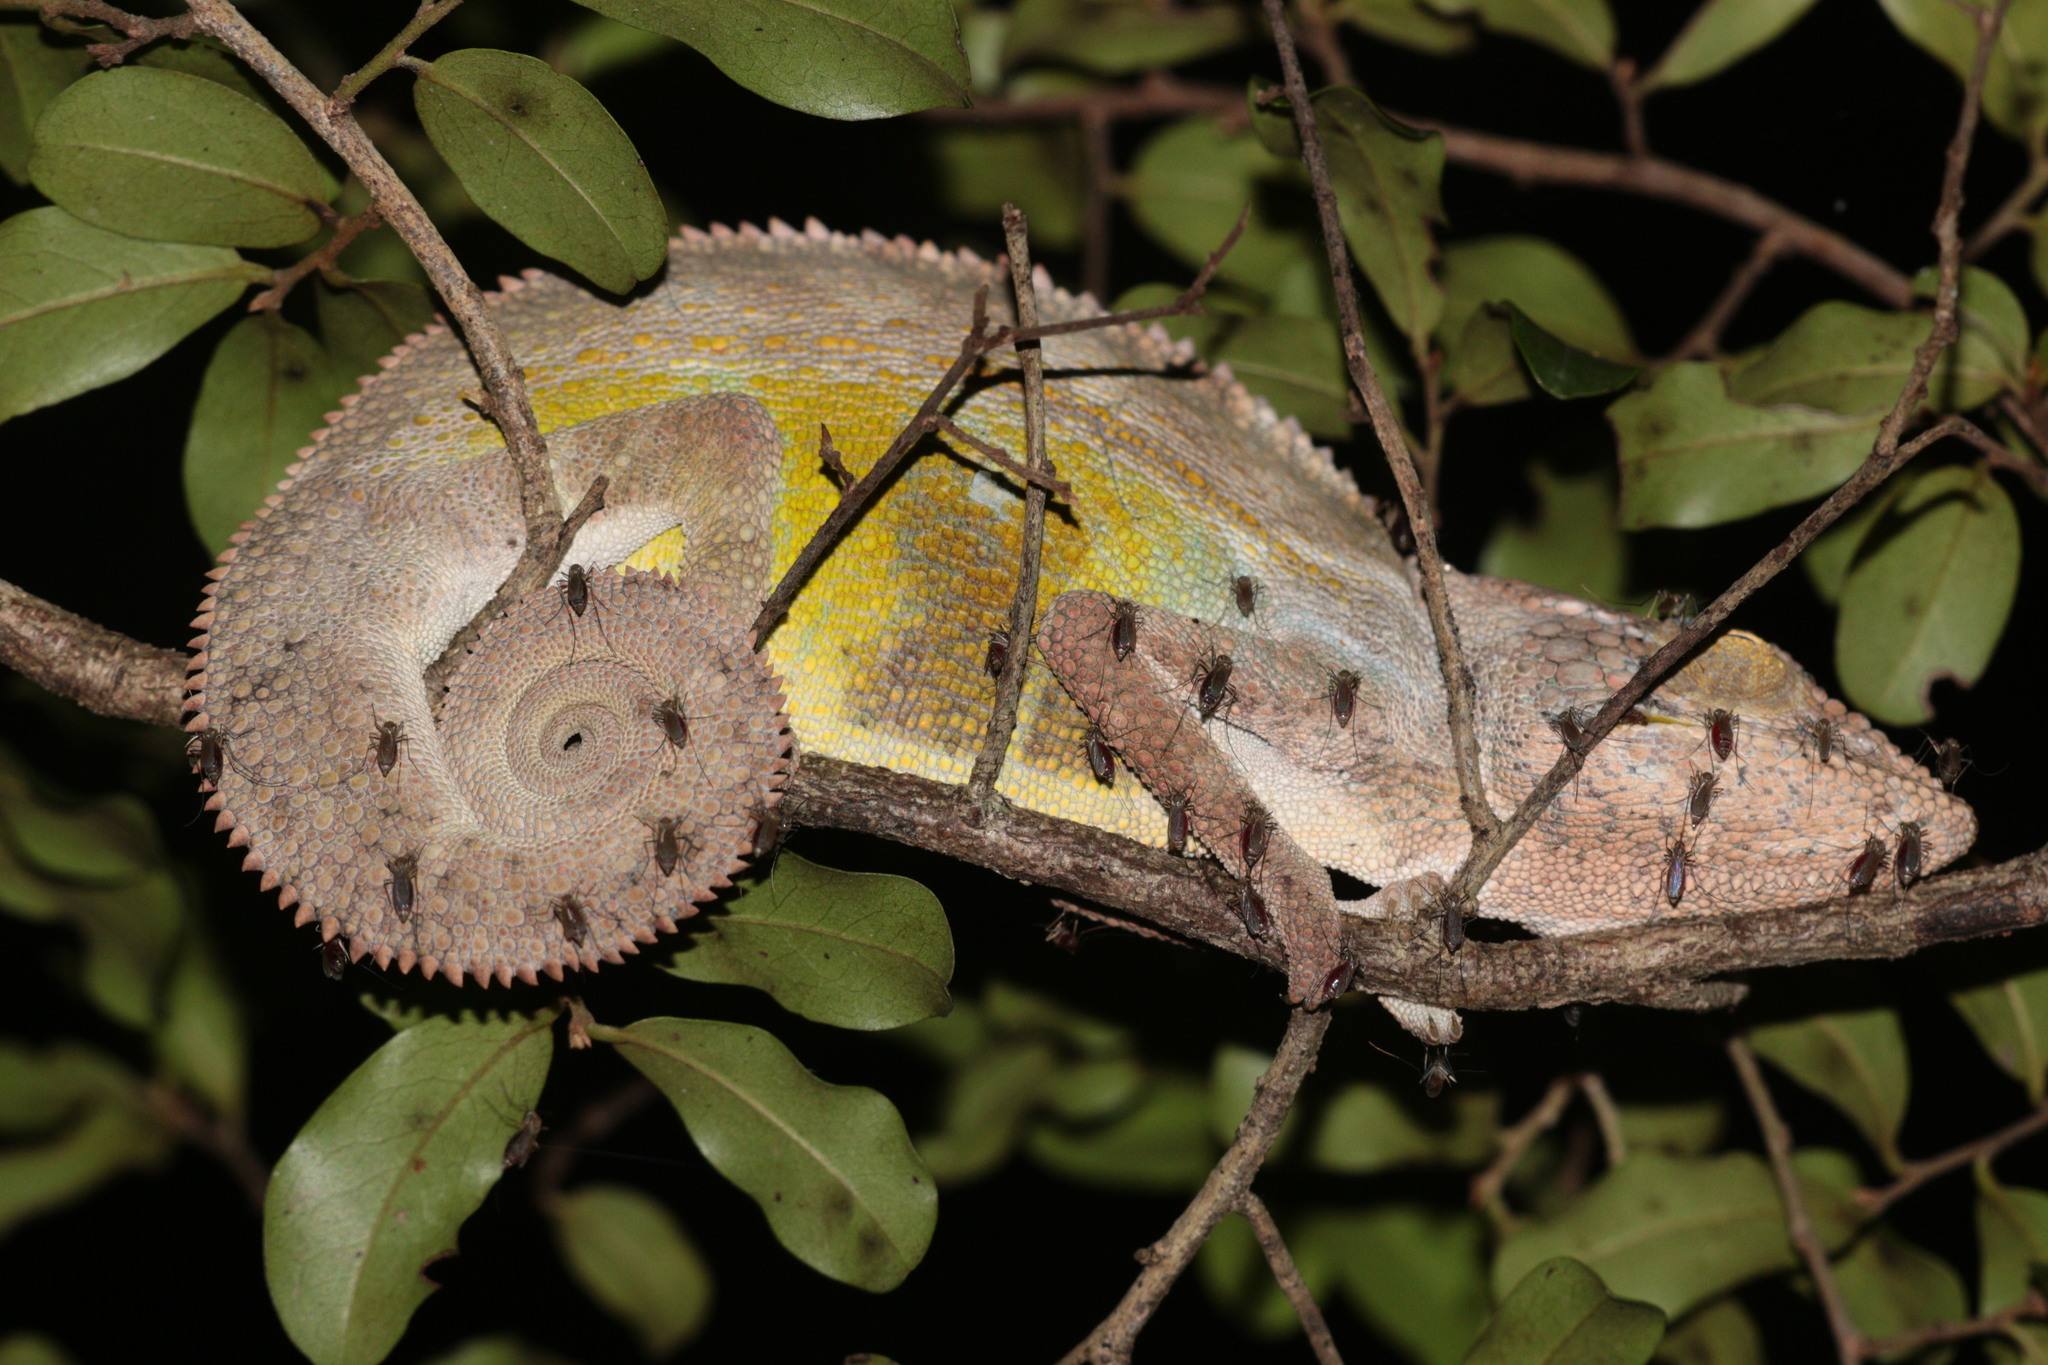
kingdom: Animalia
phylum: Chordata
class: Squamata
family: Chamaeleonidae
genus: Furcifer
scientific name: Furcifer nicosiai
